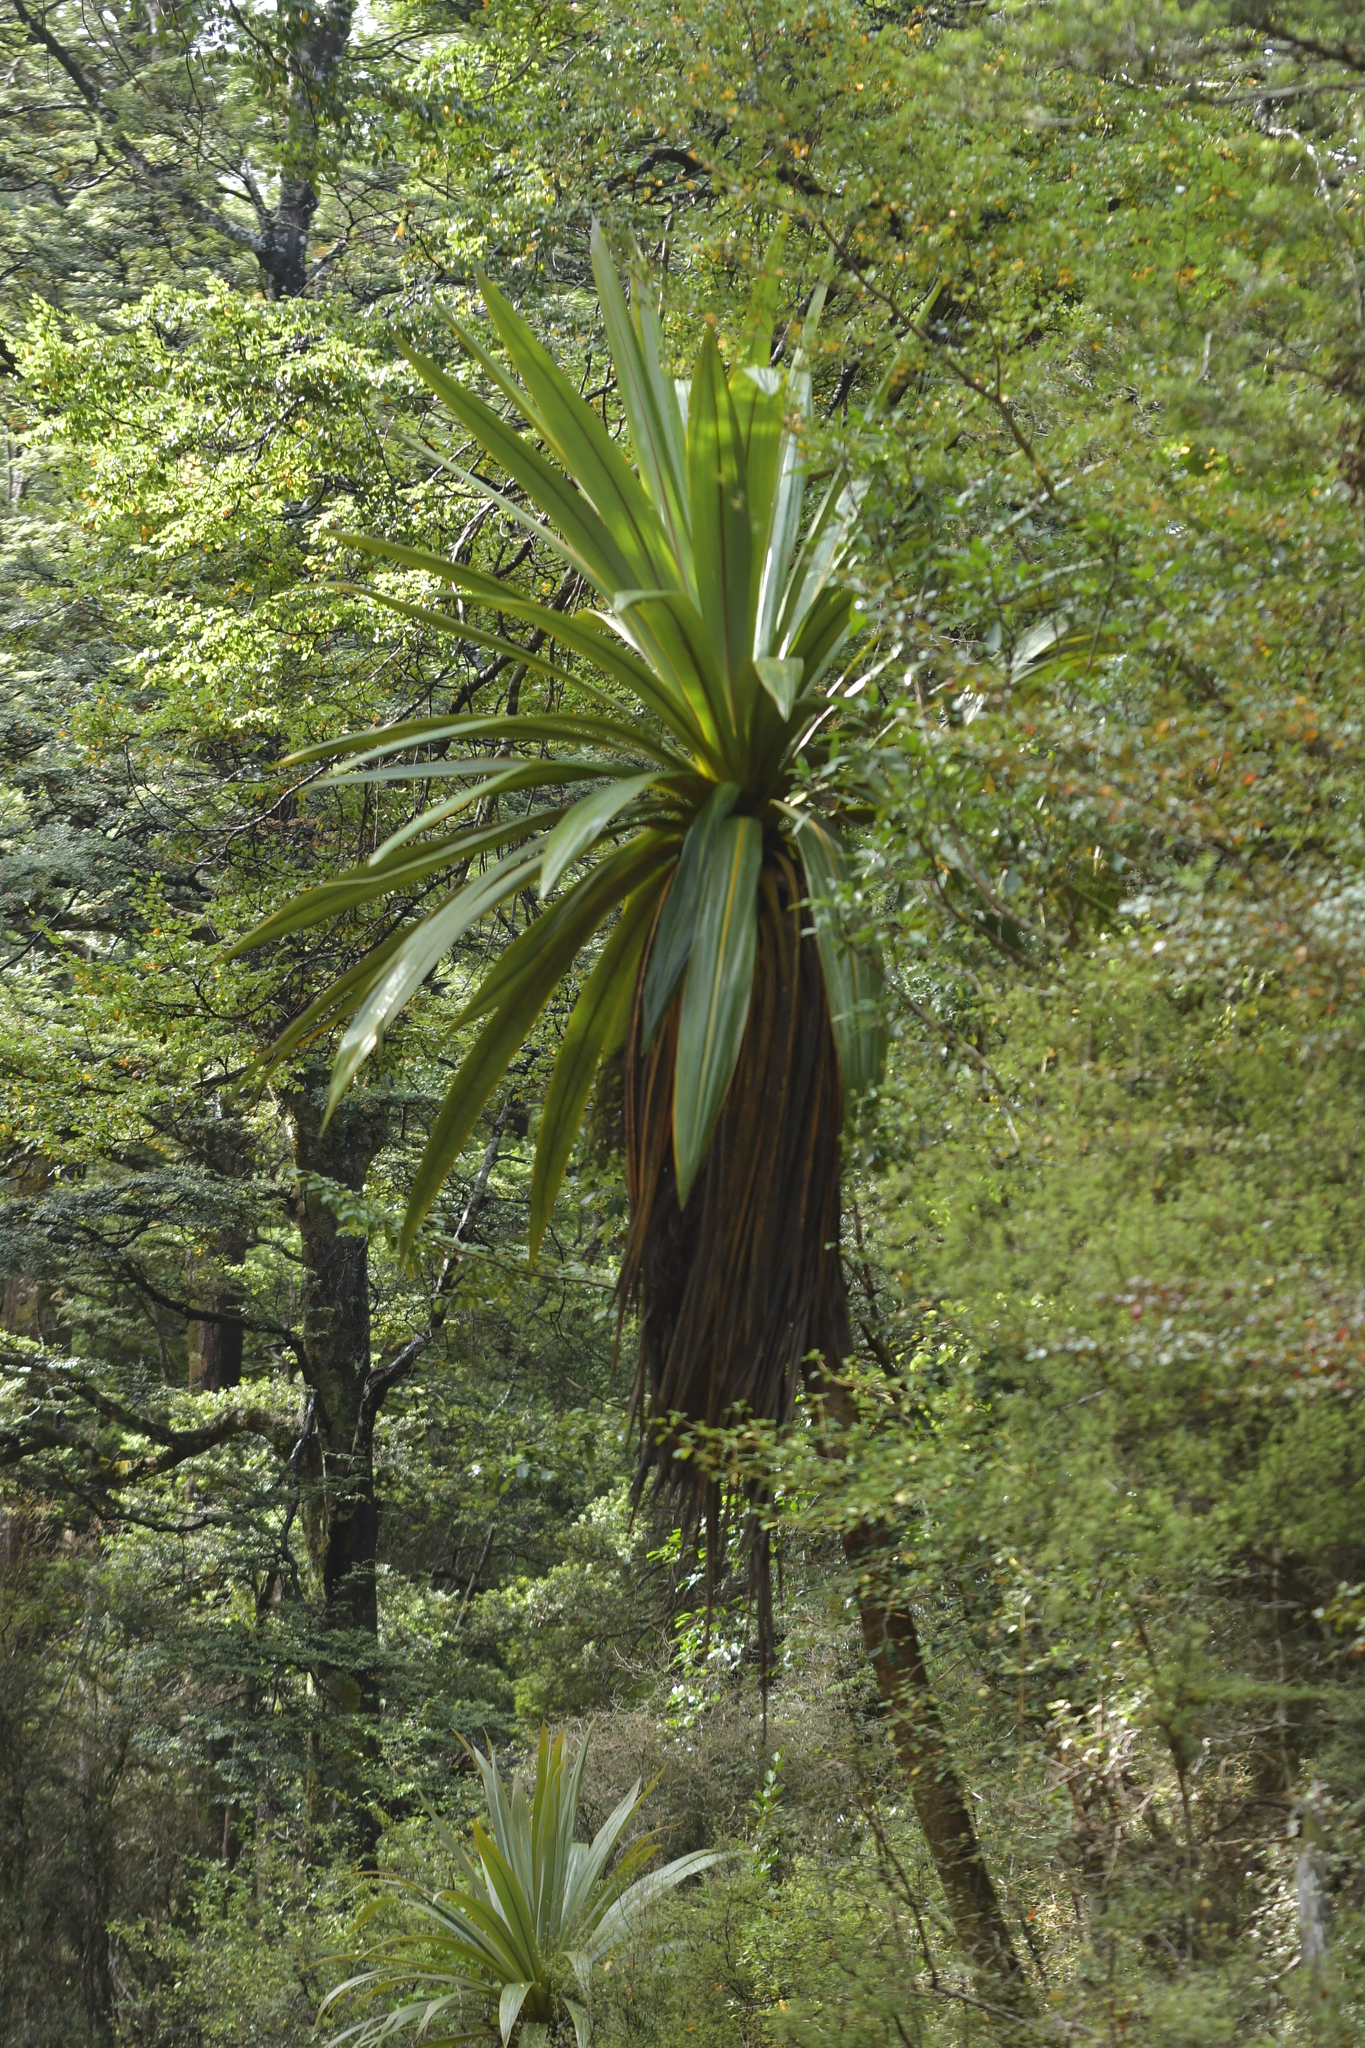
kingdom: Plantae
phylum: Tracheophyta
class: Liliopsida
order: Asparagales
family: Asparagaceae
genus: Cordyline
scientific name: Cordyline indivisa
